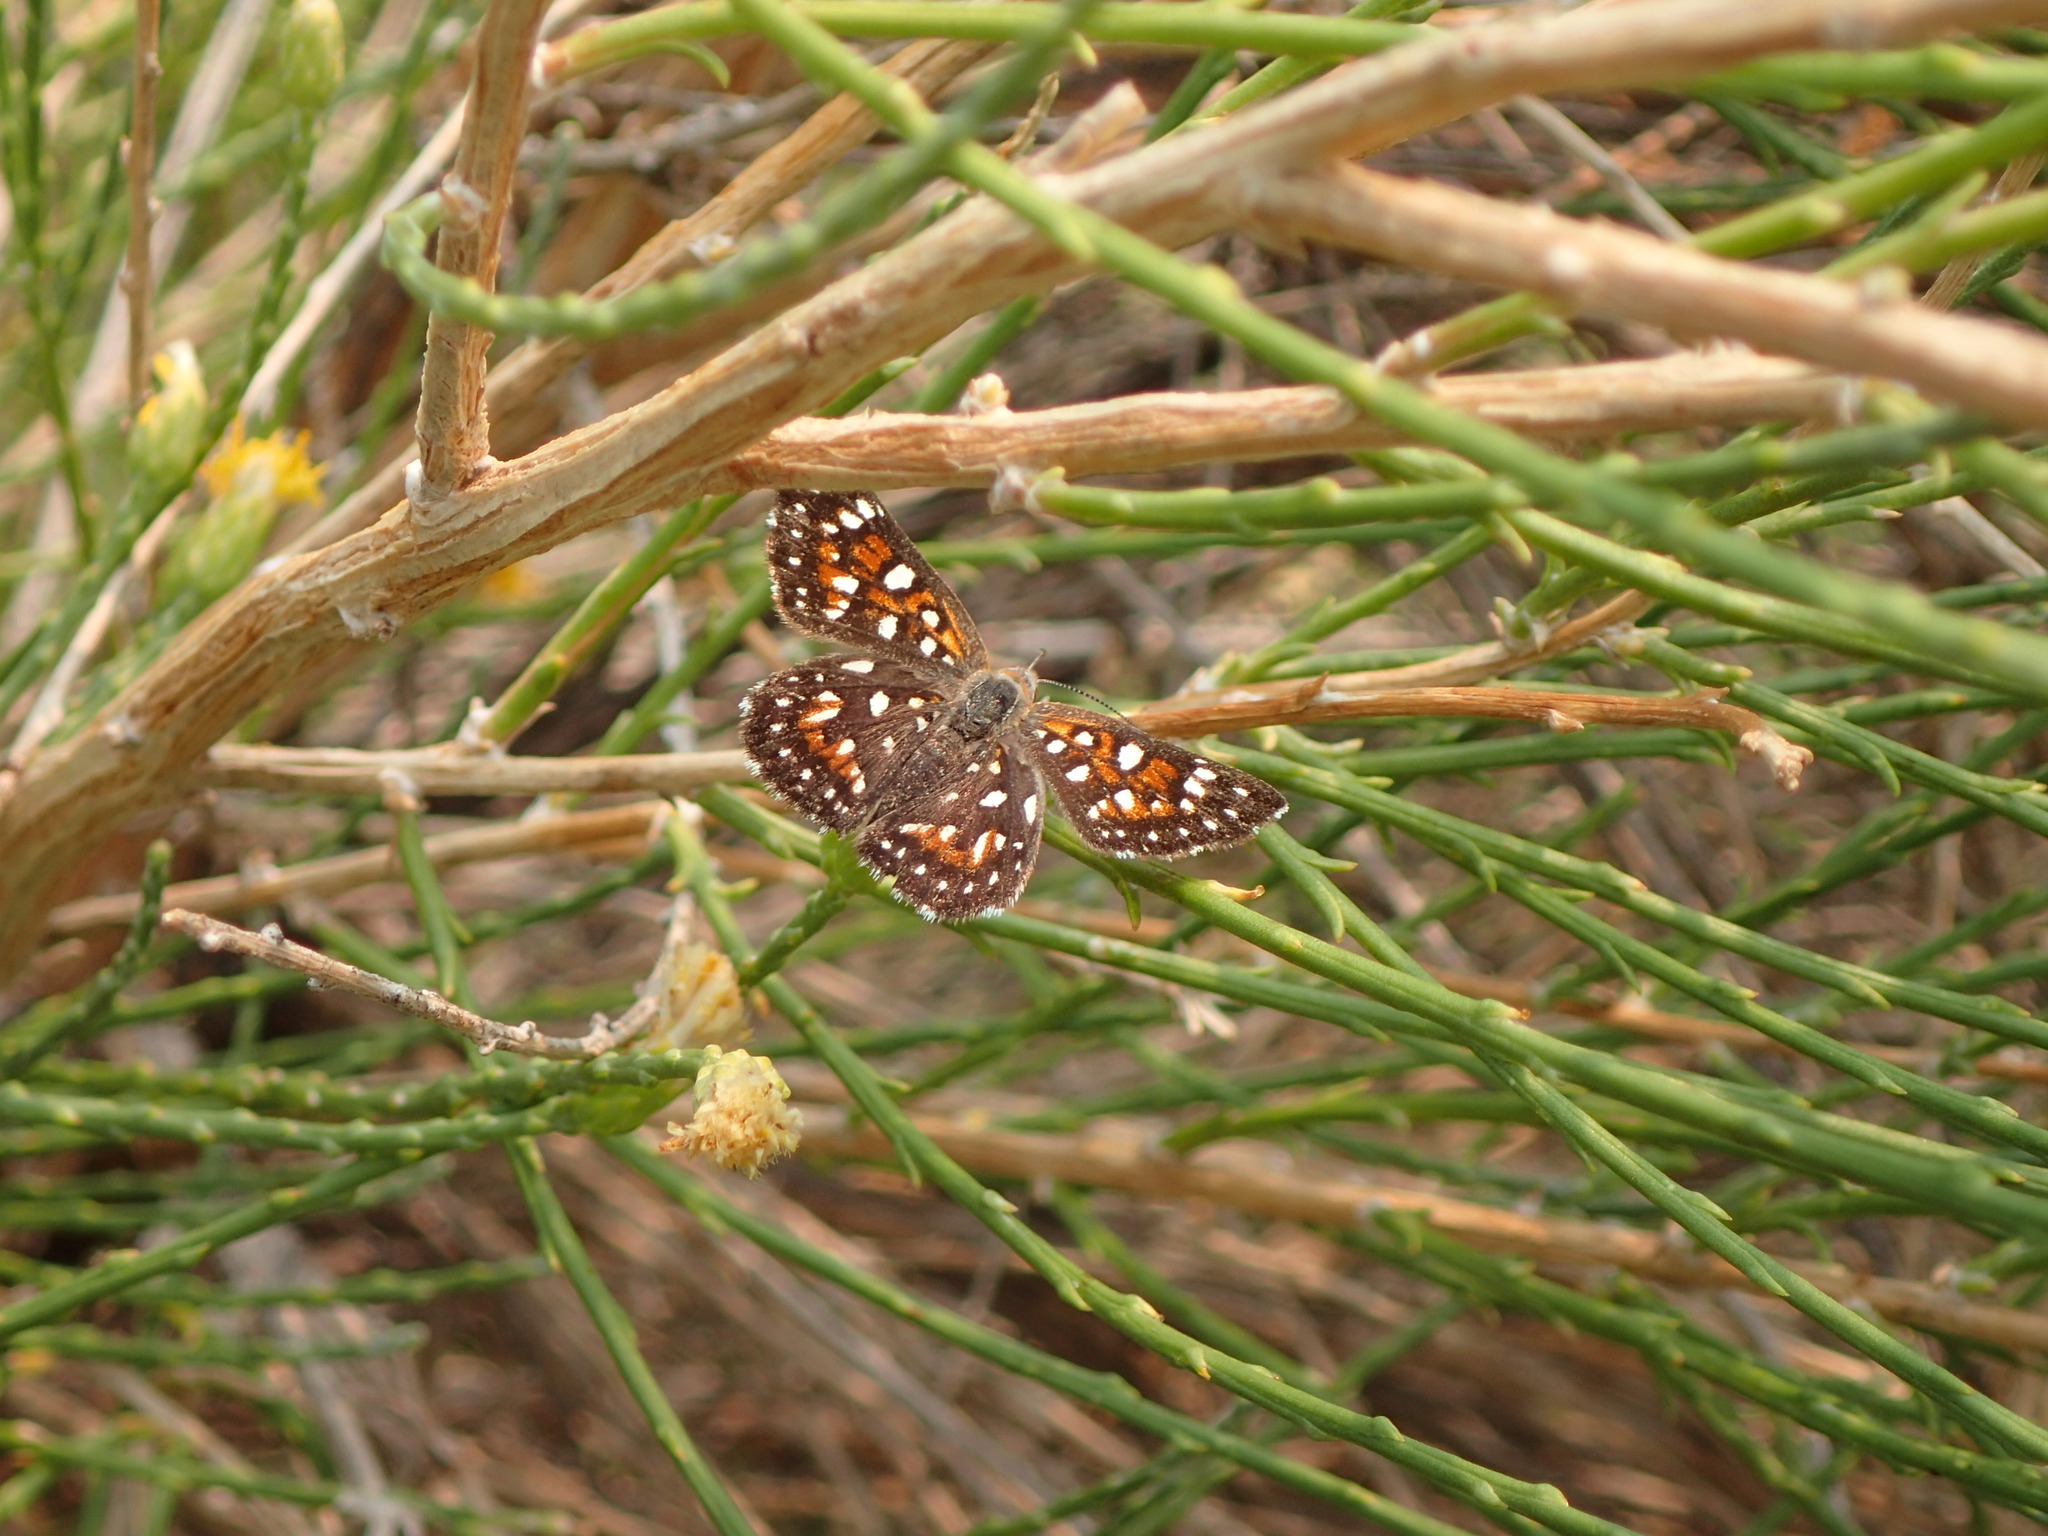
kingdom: Animalia
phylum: Arthropoda
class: Insecta
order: Lepidoptera
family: Riodinidae
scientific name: Riodinidae
